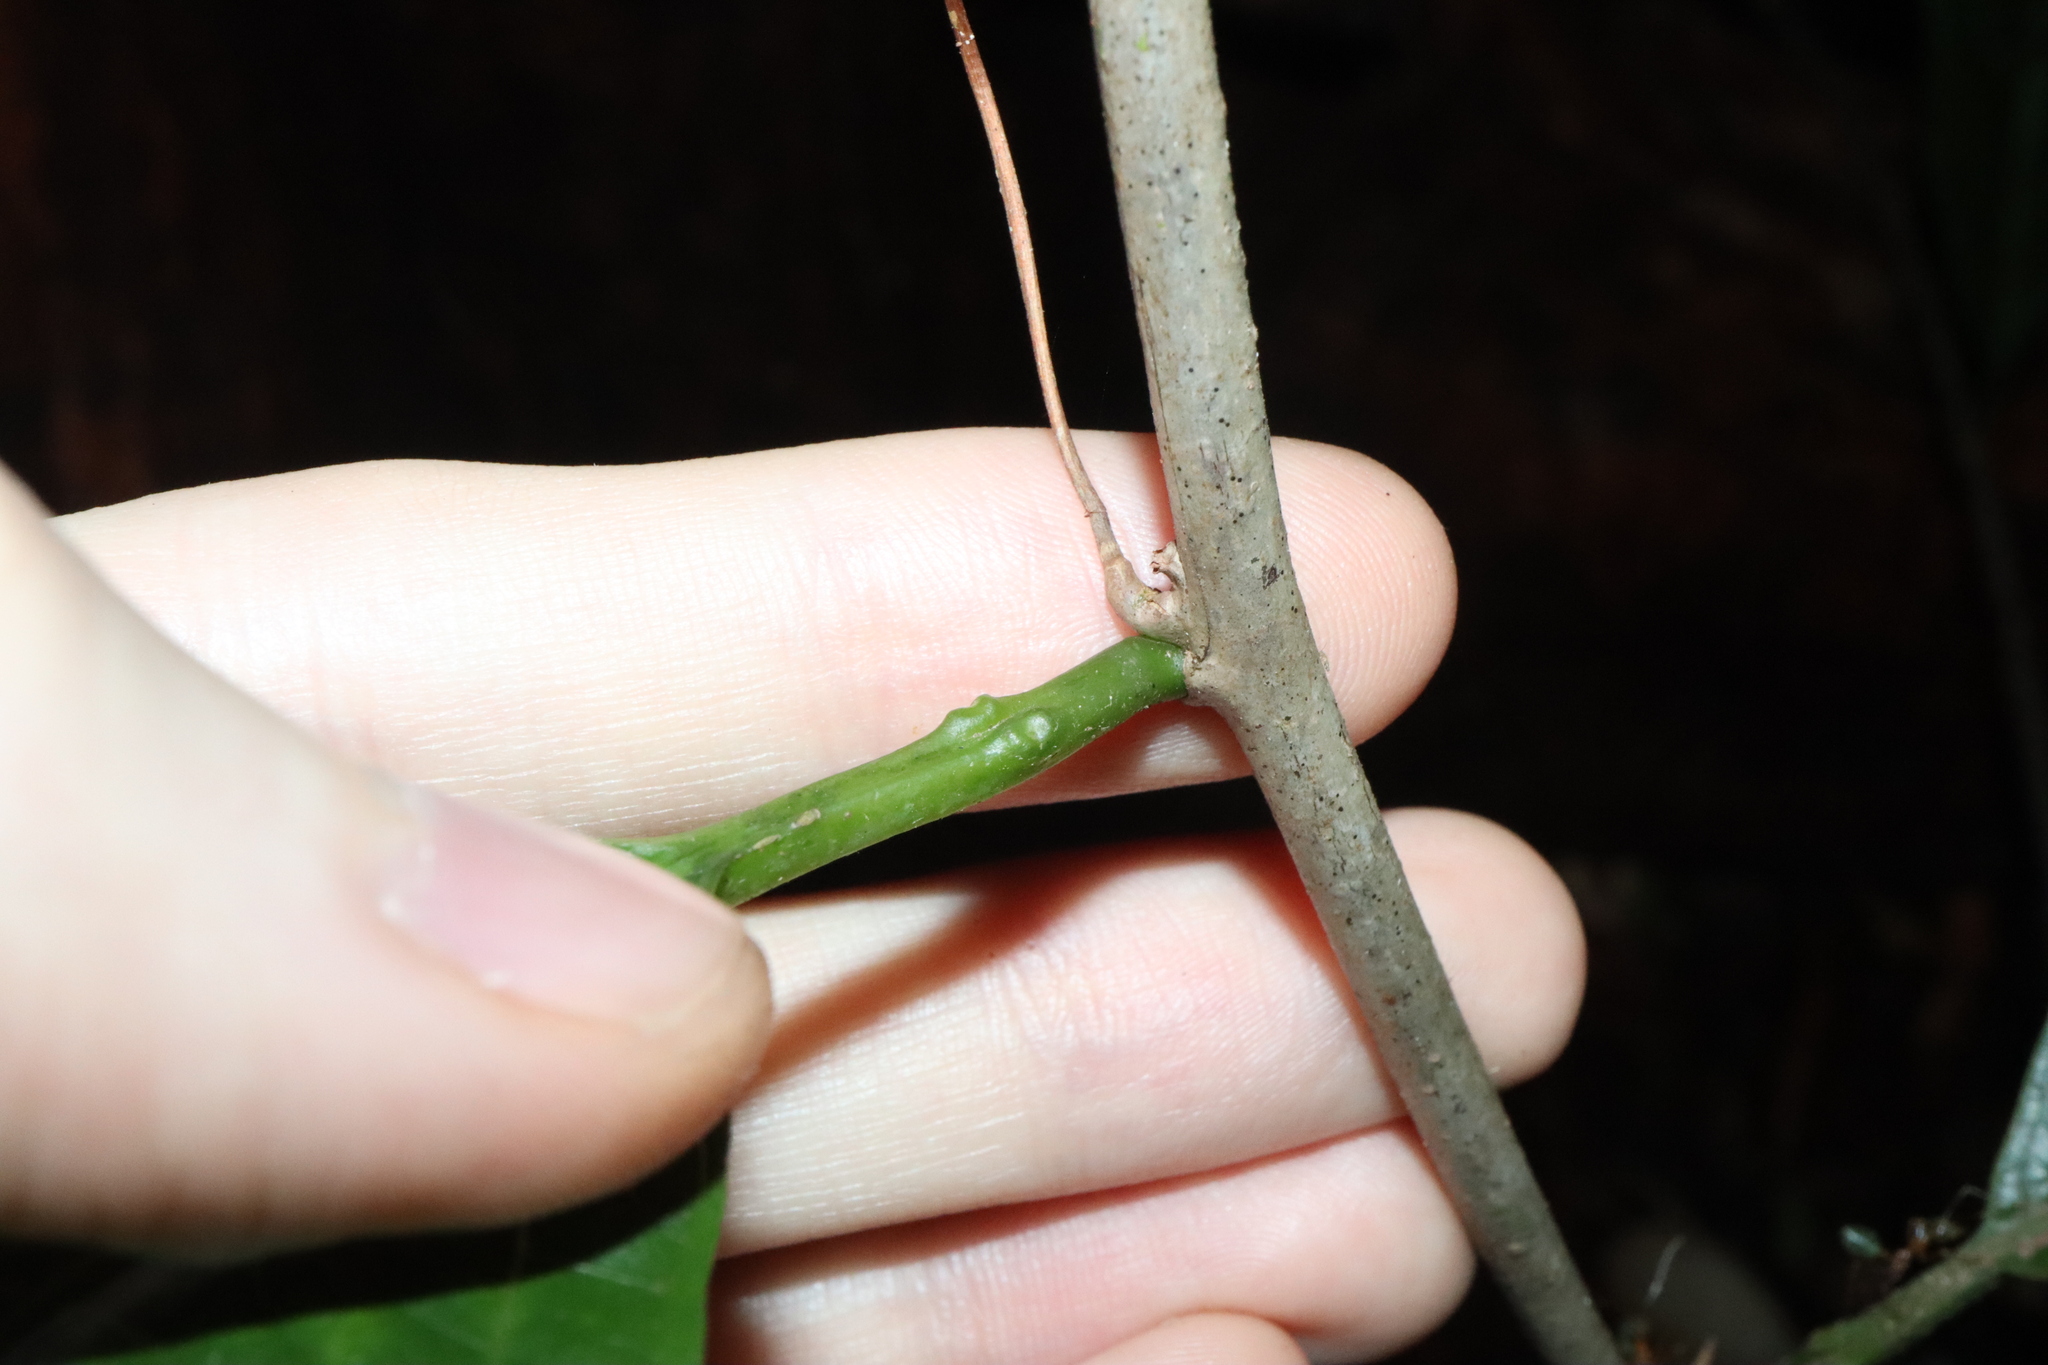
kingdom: Plantae
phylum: Tracheophyta
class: Magnoliopsida
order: Malpighiales
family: Passifloraceae
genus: Passiflora
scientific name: Passiflora kuranda
